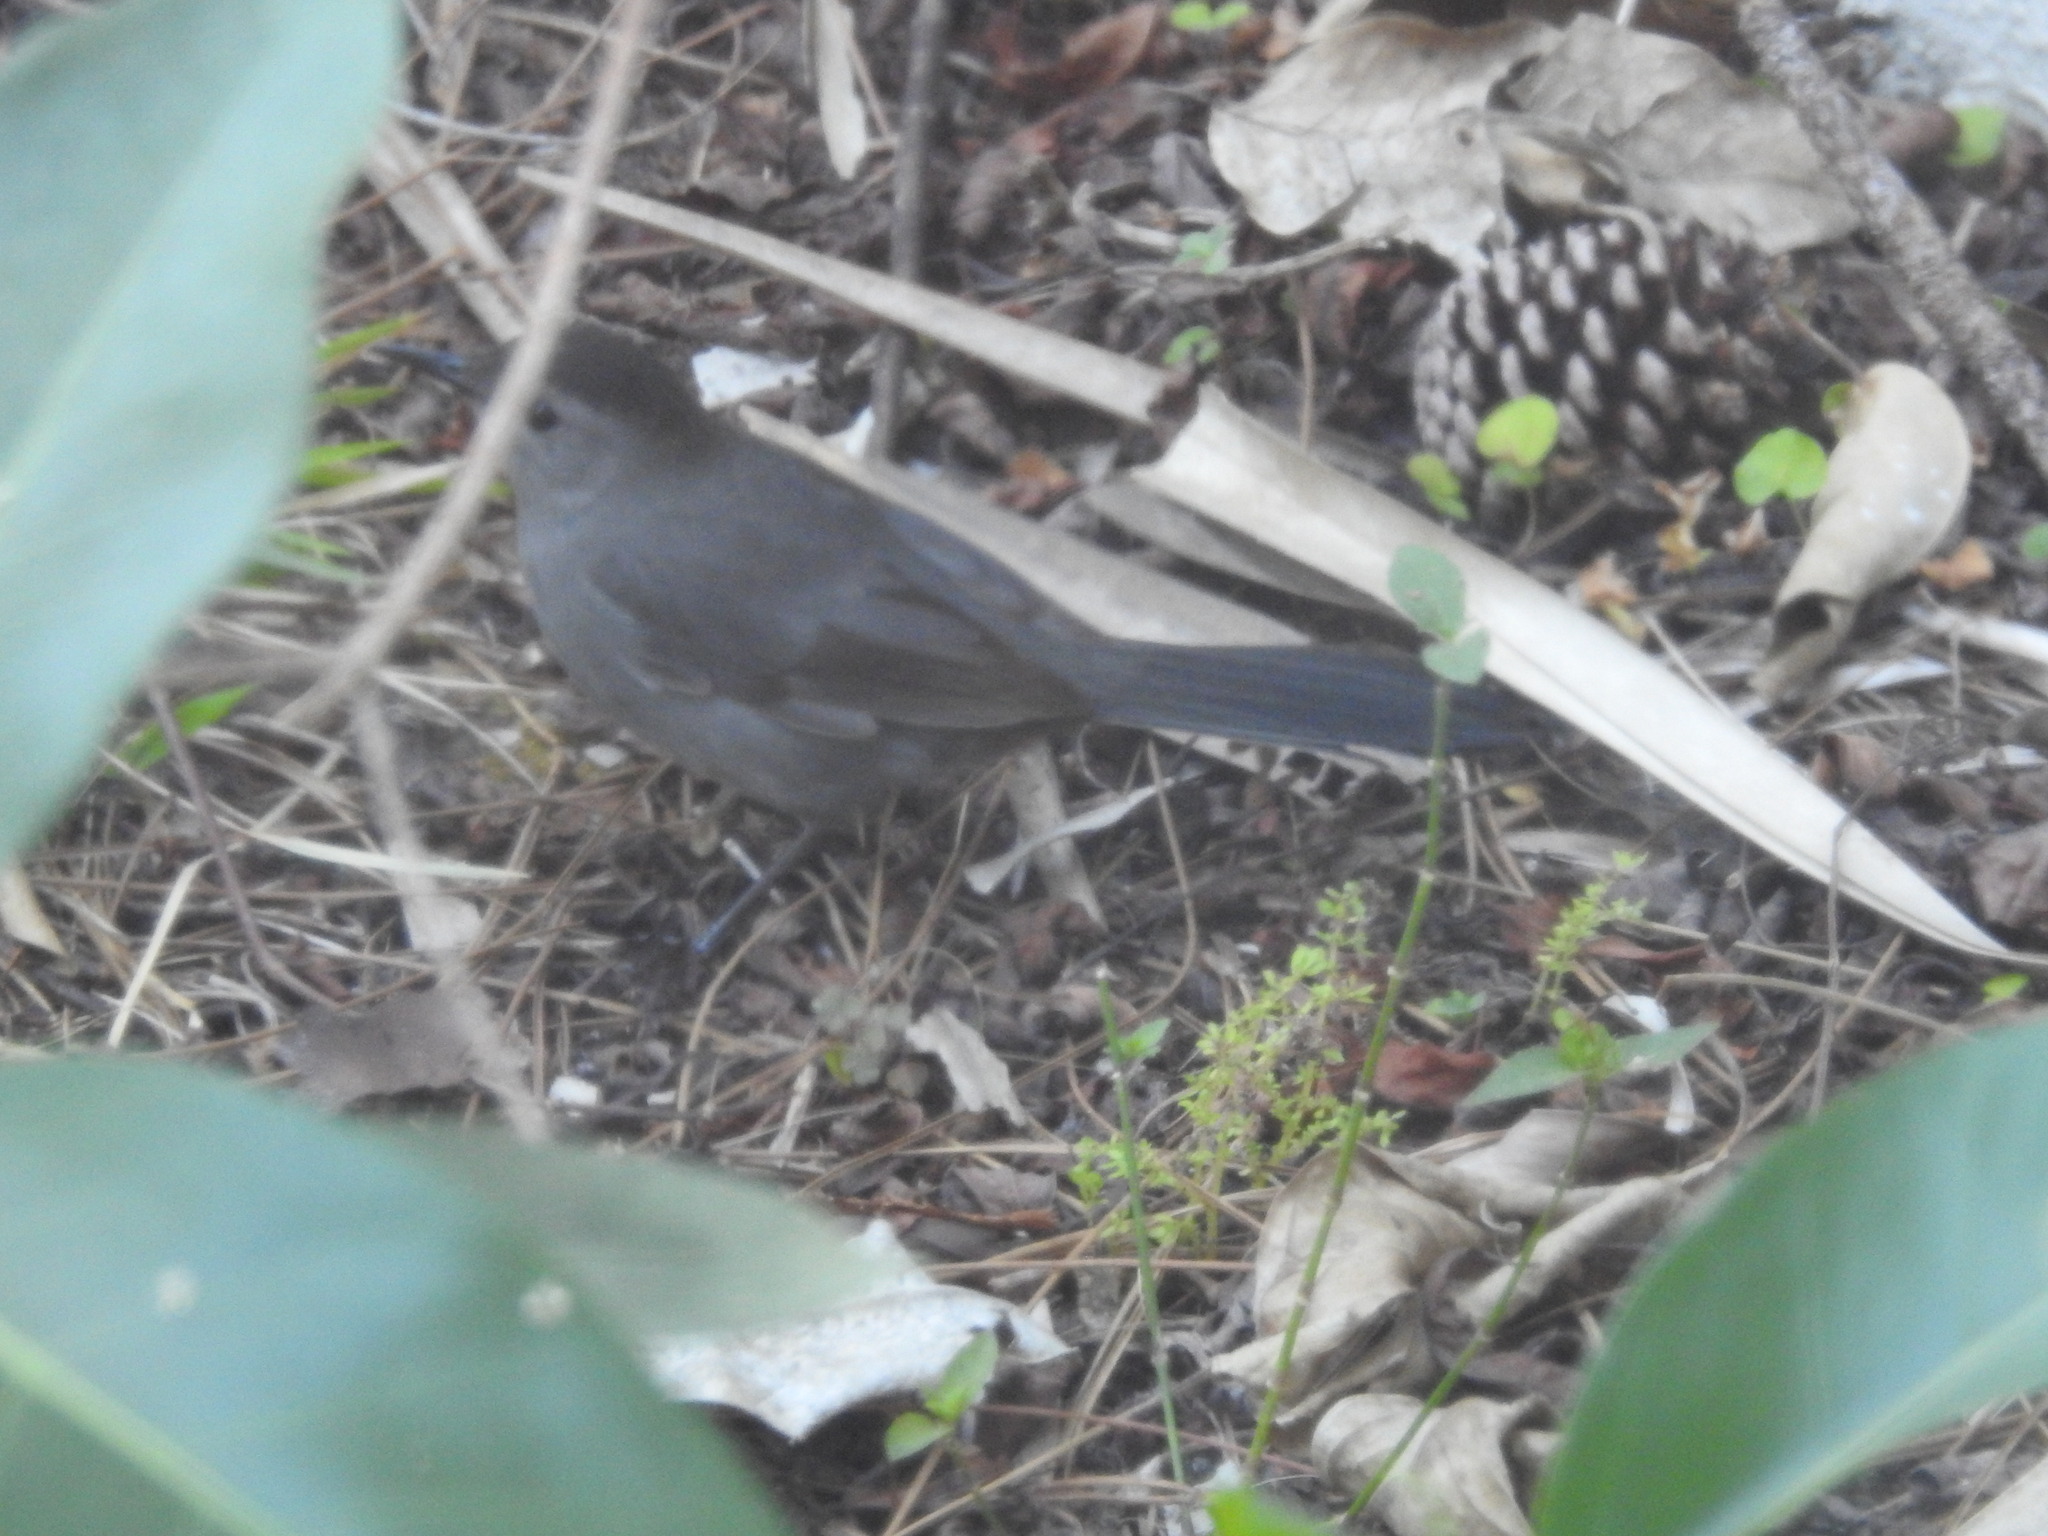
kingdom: Animalia
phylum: Chordata
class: Aves
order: Passeriformes
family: Mimidae
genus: Dumetella
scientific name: Dumetella carolinensis
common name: Gray catbird
